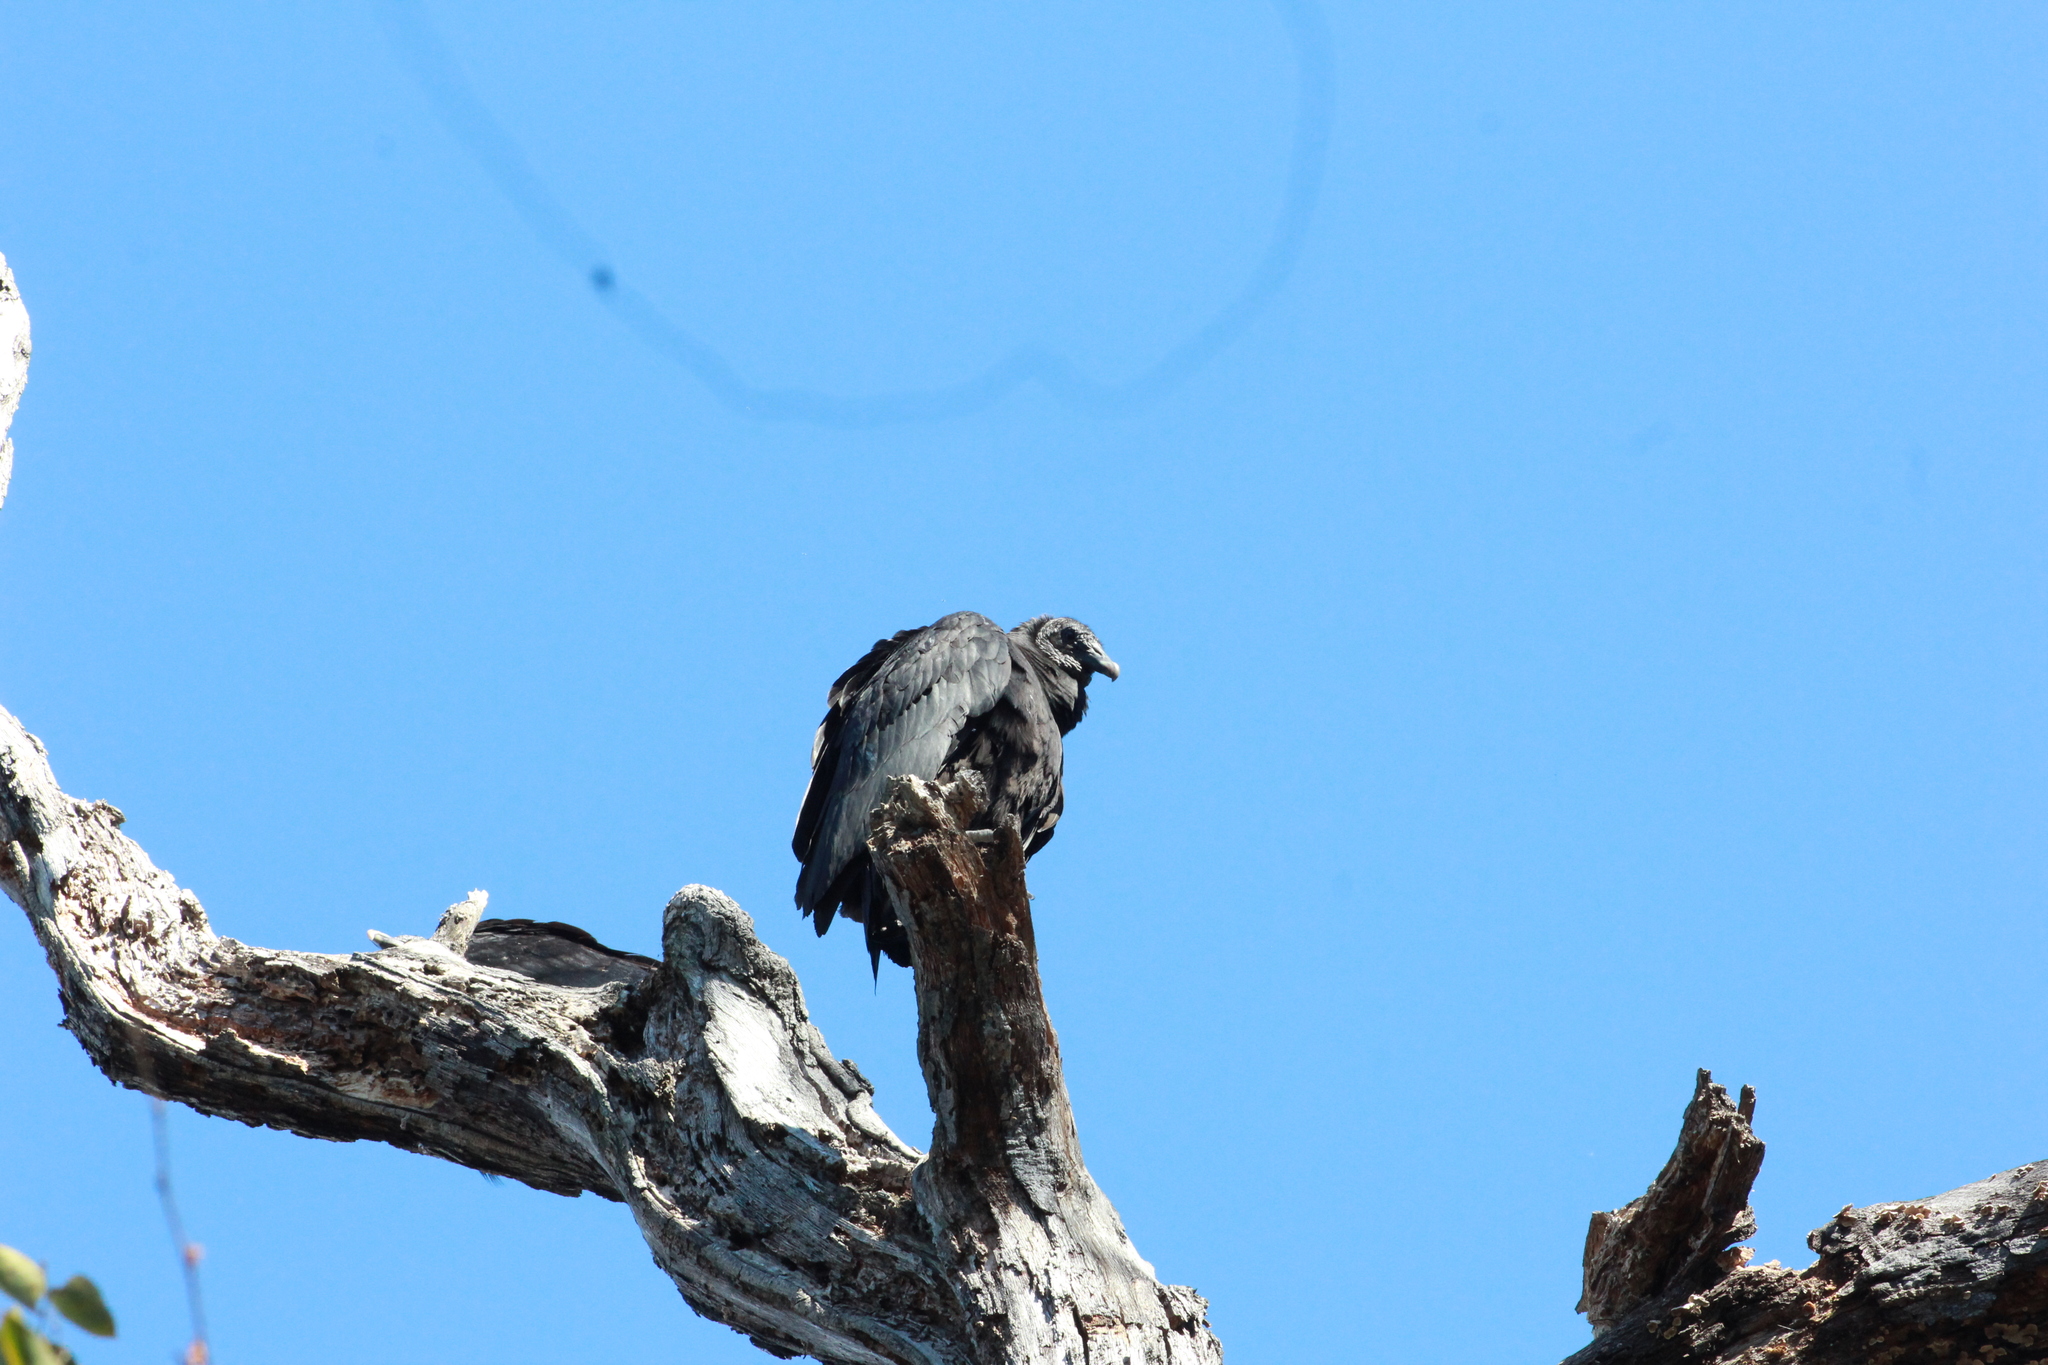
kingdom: Animalia
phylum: Chordata
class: Aves
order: Accipitriformes
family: Cathartidae
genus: Coragyps
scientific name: Coragyps atratus
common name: Black vulture
